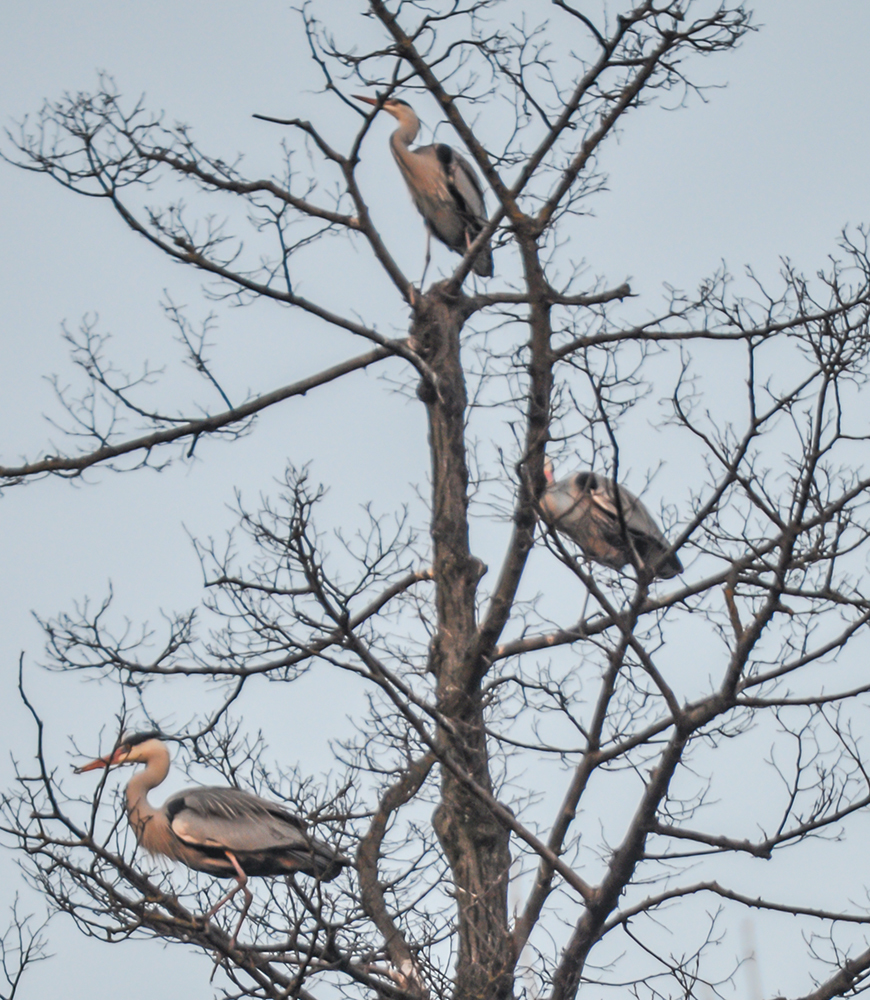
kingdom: Animalia
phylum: Chordata
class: Aves
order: Pelecaniformes
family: Ardeidae
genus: Ardea
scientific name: Ardea cinerea
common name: Grey heron
